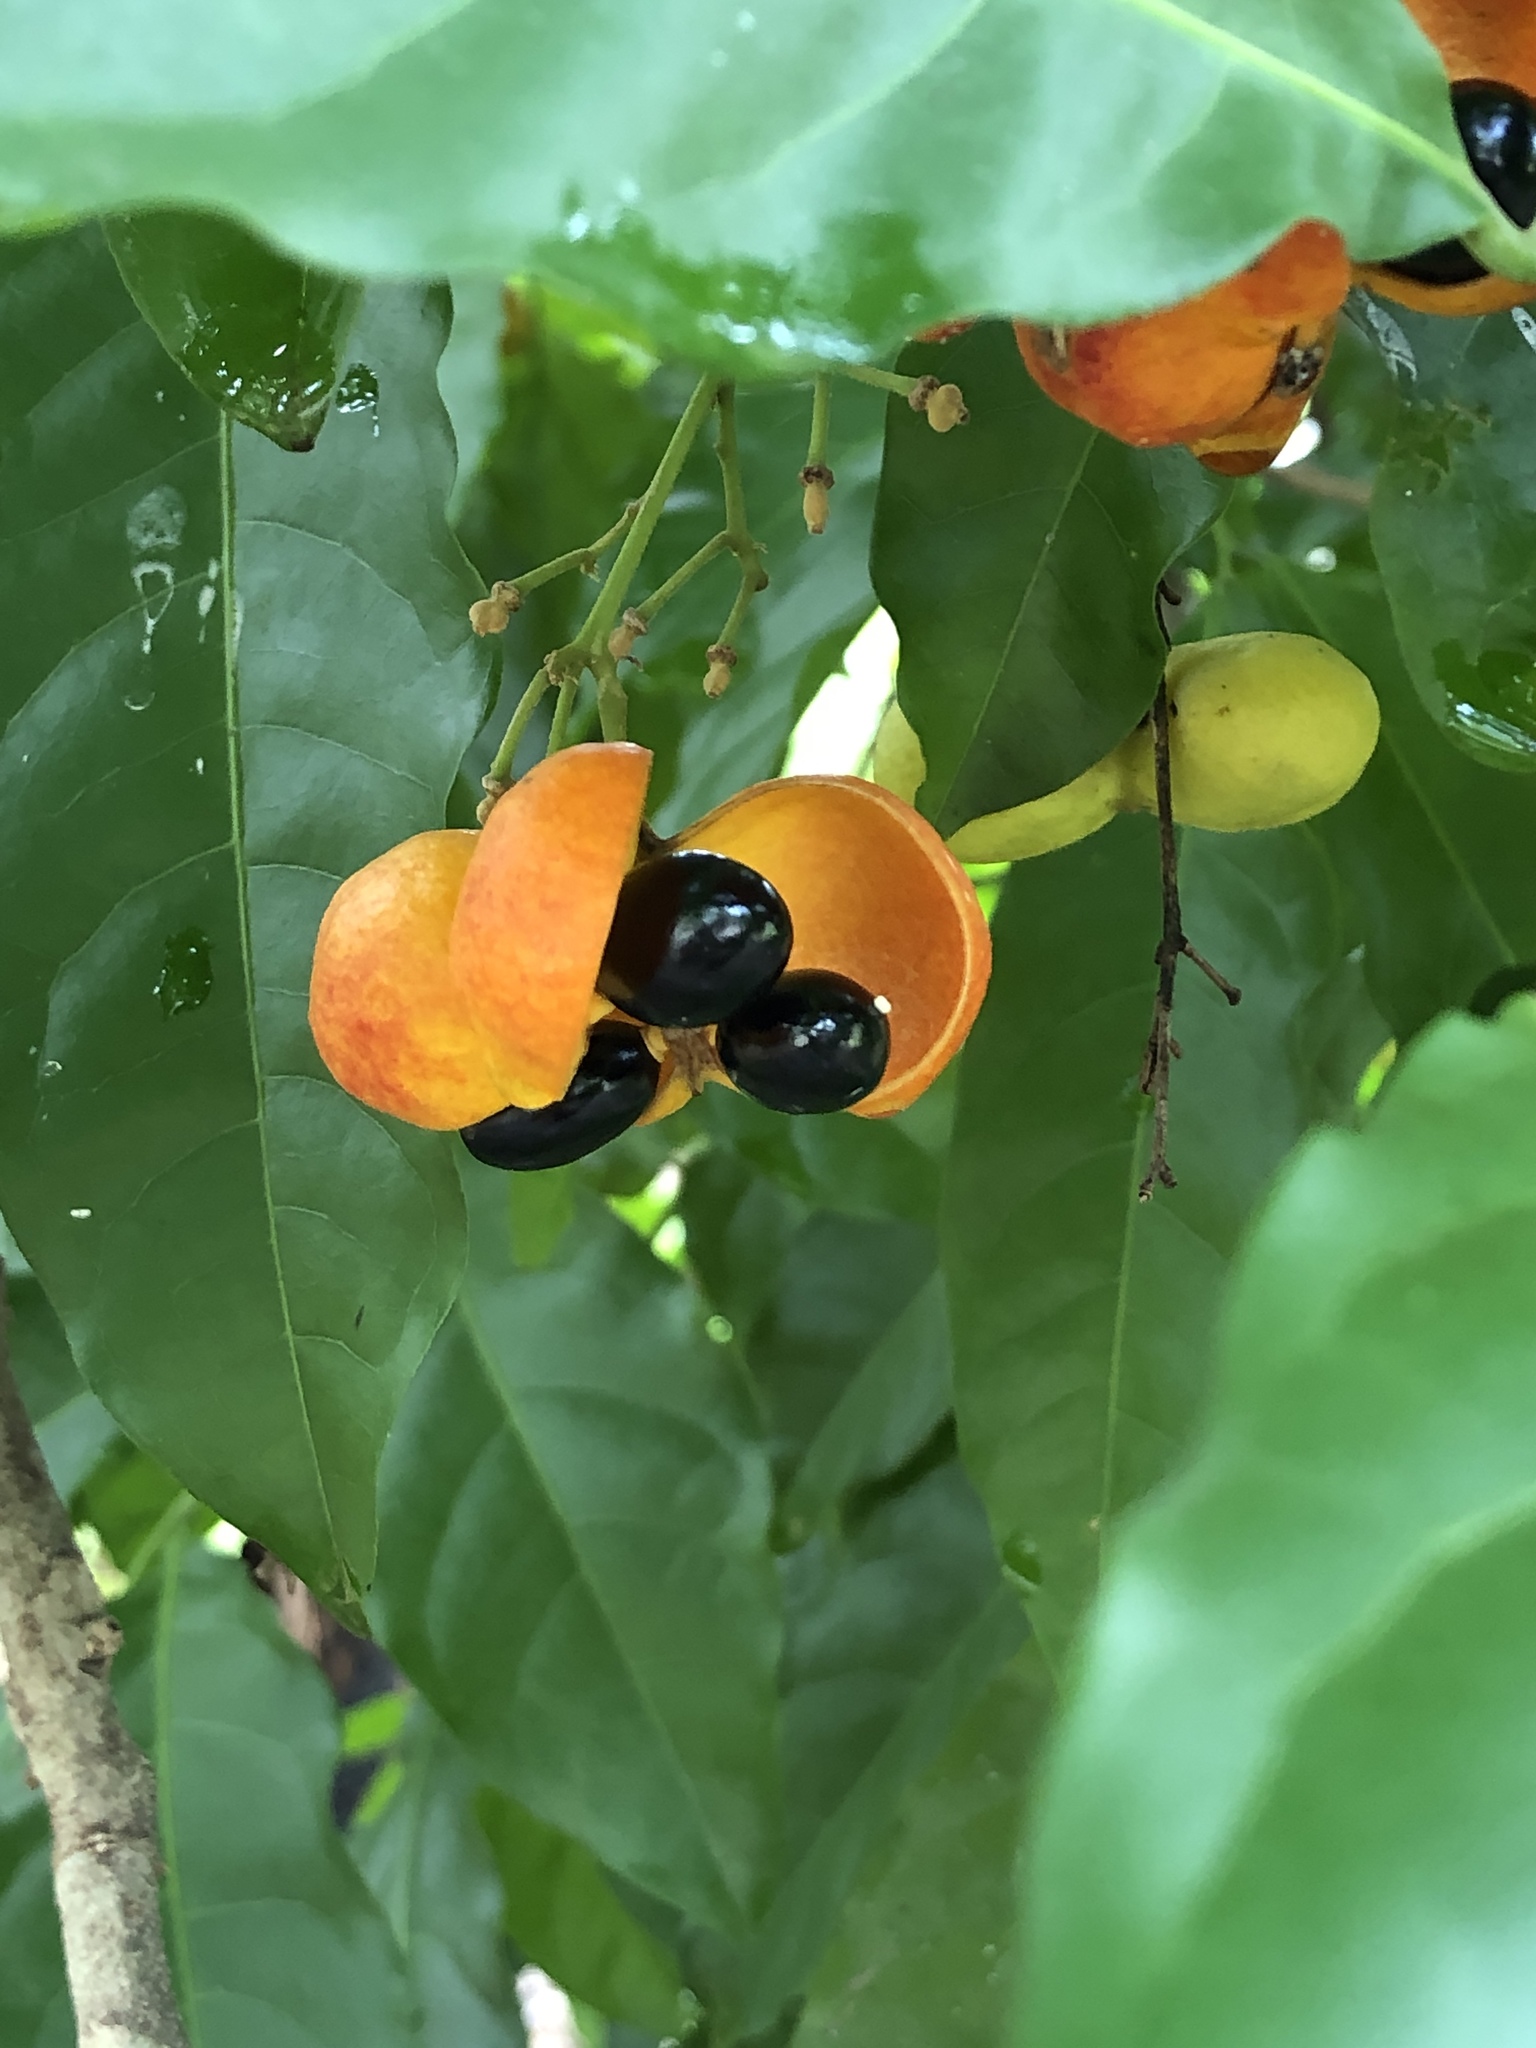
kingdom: Plantae
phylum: Tracheophyta
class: Magnoliopsida
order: Sapindales
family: Sapindaceae
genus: Harpullia
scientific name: Harpullia pendula
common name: Moreton bay tulipwood
